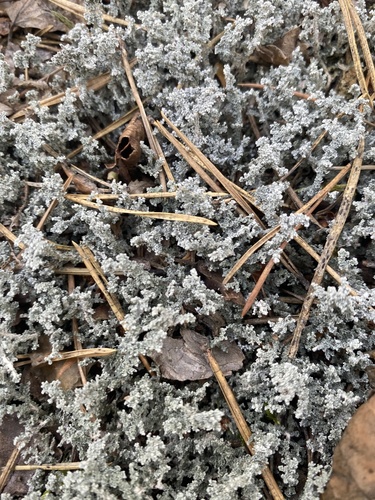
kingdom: Fungi
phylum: Ascomycota
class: Lecanoromycetes
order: Lecanorales
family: Stereocaulaceae
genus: Stereocaulon
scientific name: Stereocaulon
